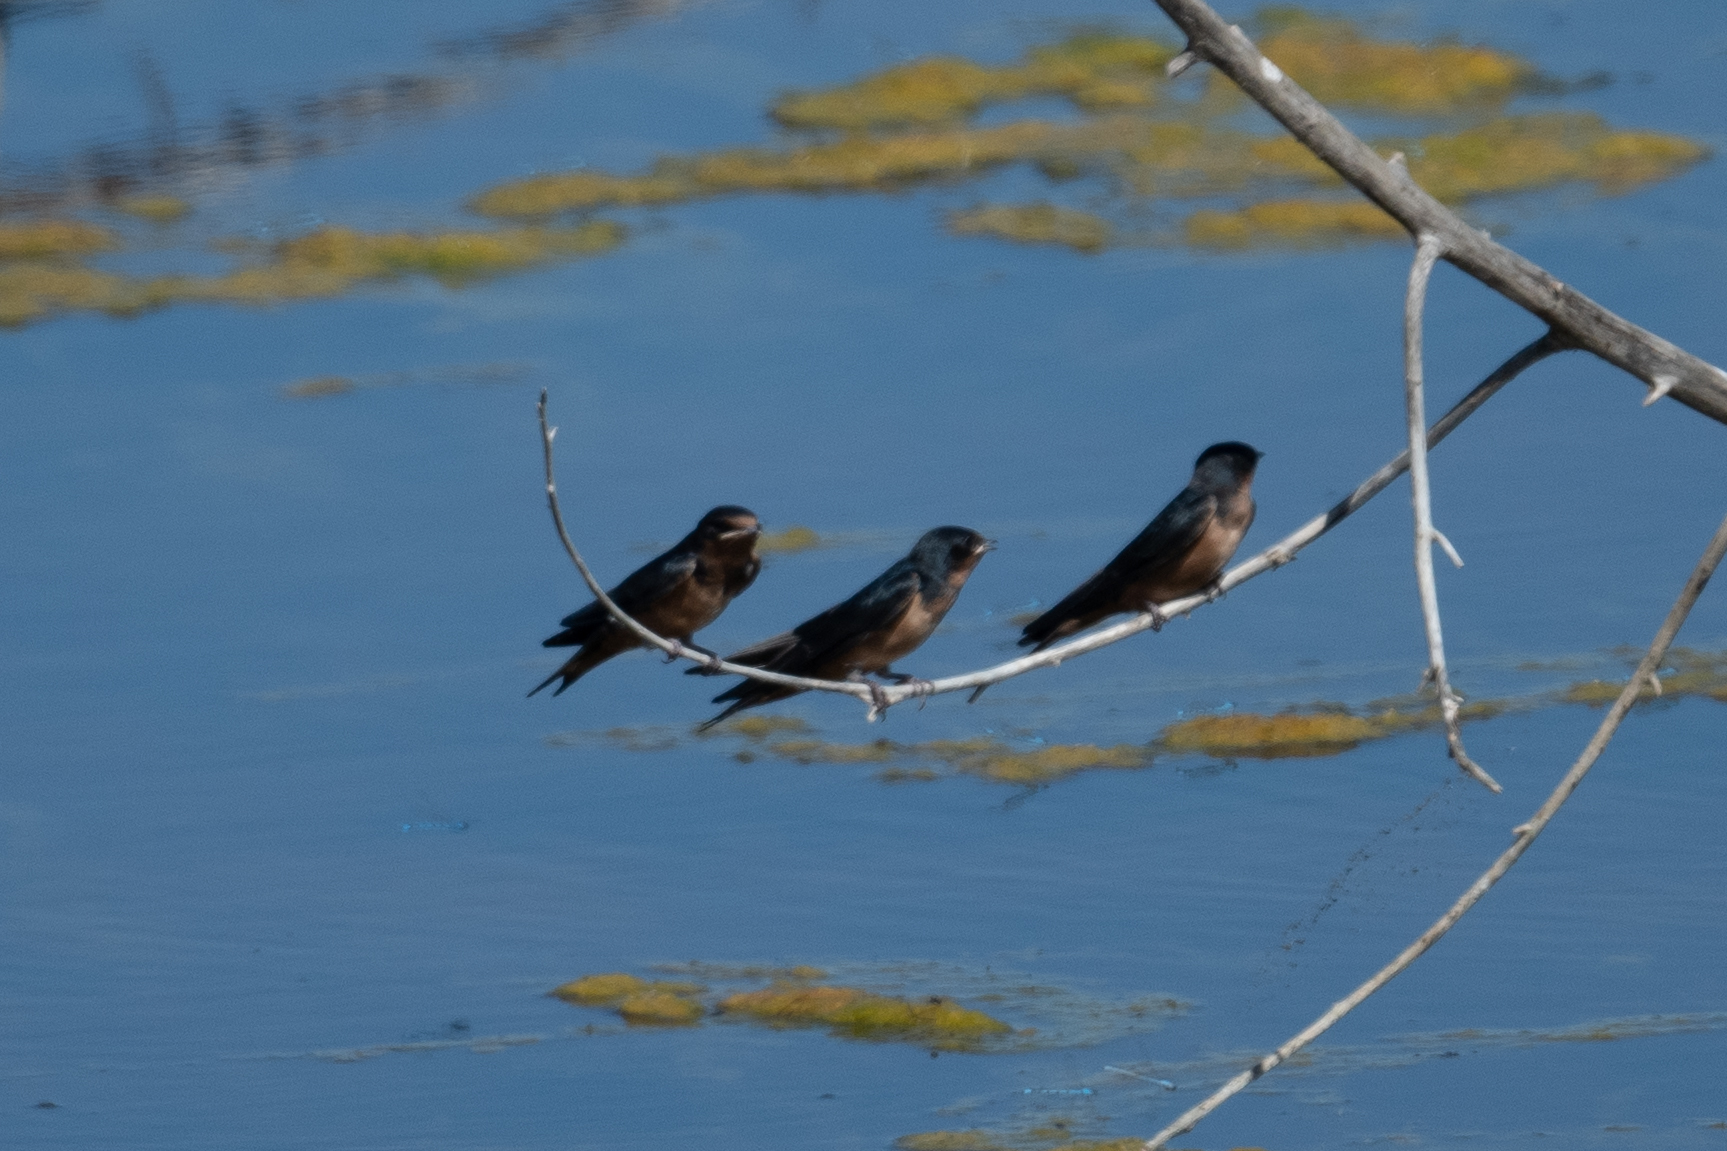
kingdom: Animalia
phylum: Chordata
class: Aves
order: Passeriformes
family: Hirundinidae
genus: Hirundo
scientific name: Hirundo rustica
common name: Barn swallow
